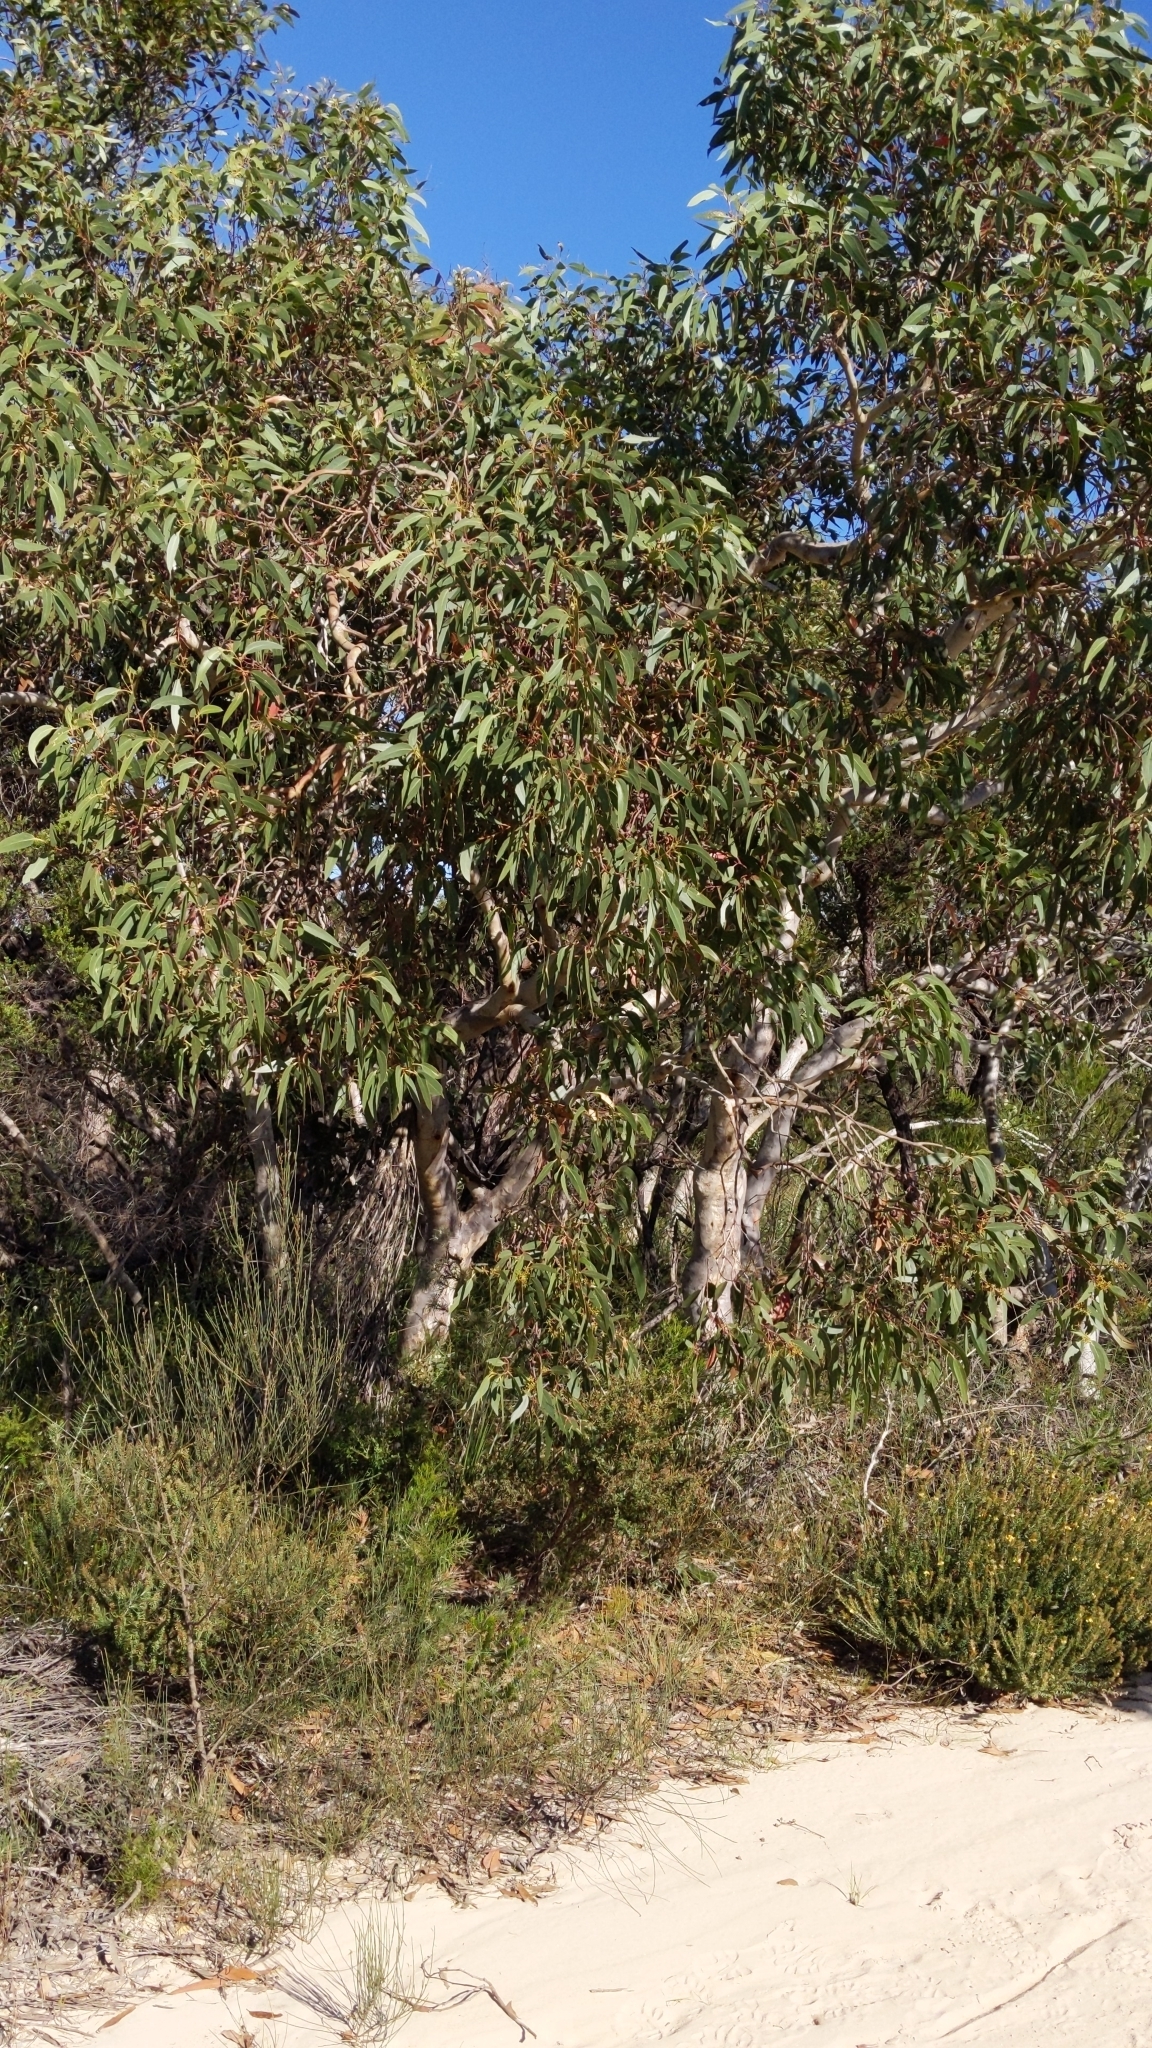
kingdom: Plantae
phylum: Tracheophyta
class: Magnoliopsida
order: Myrtales
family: Myrtaceae
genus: Eucalyptus
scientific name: Eucalyptus haemastoma
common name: Scribbly-gum
